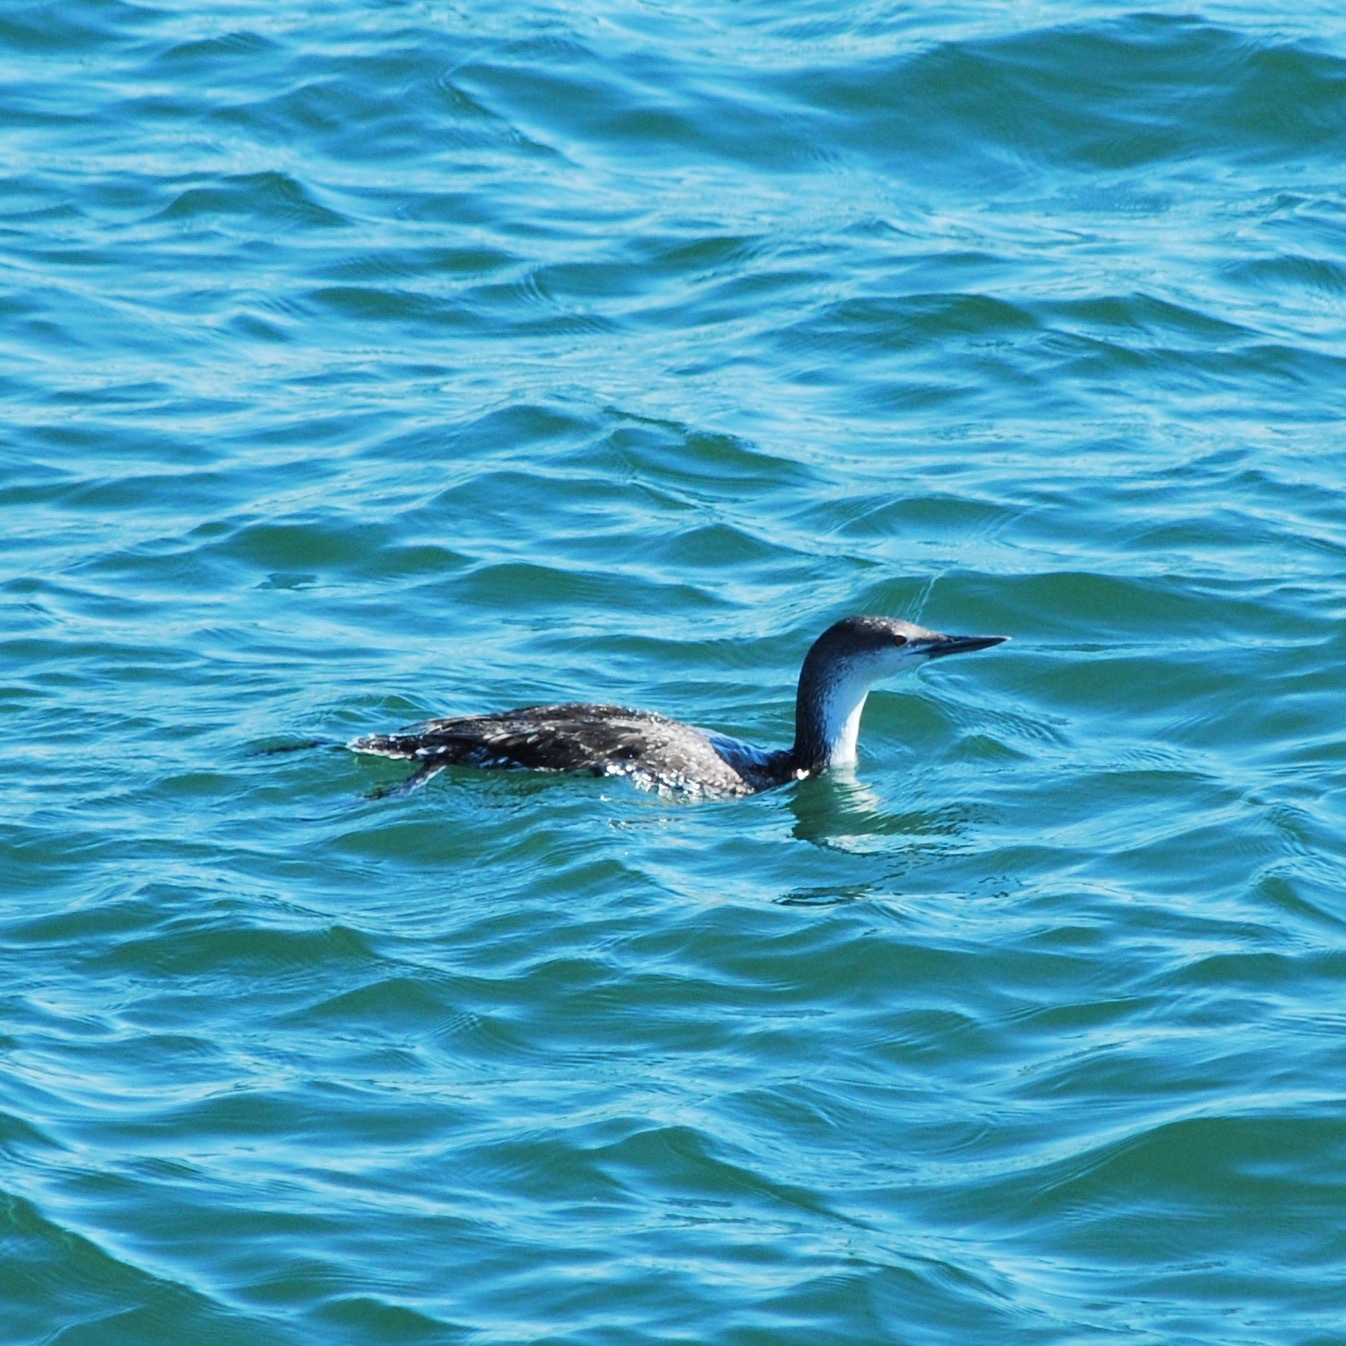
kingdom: Animalia
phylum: Chordata
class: Aves
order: Gaviiformes
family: Gaviidae
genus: Gavia
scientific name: Gavia stellata
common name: Red-throated loon
